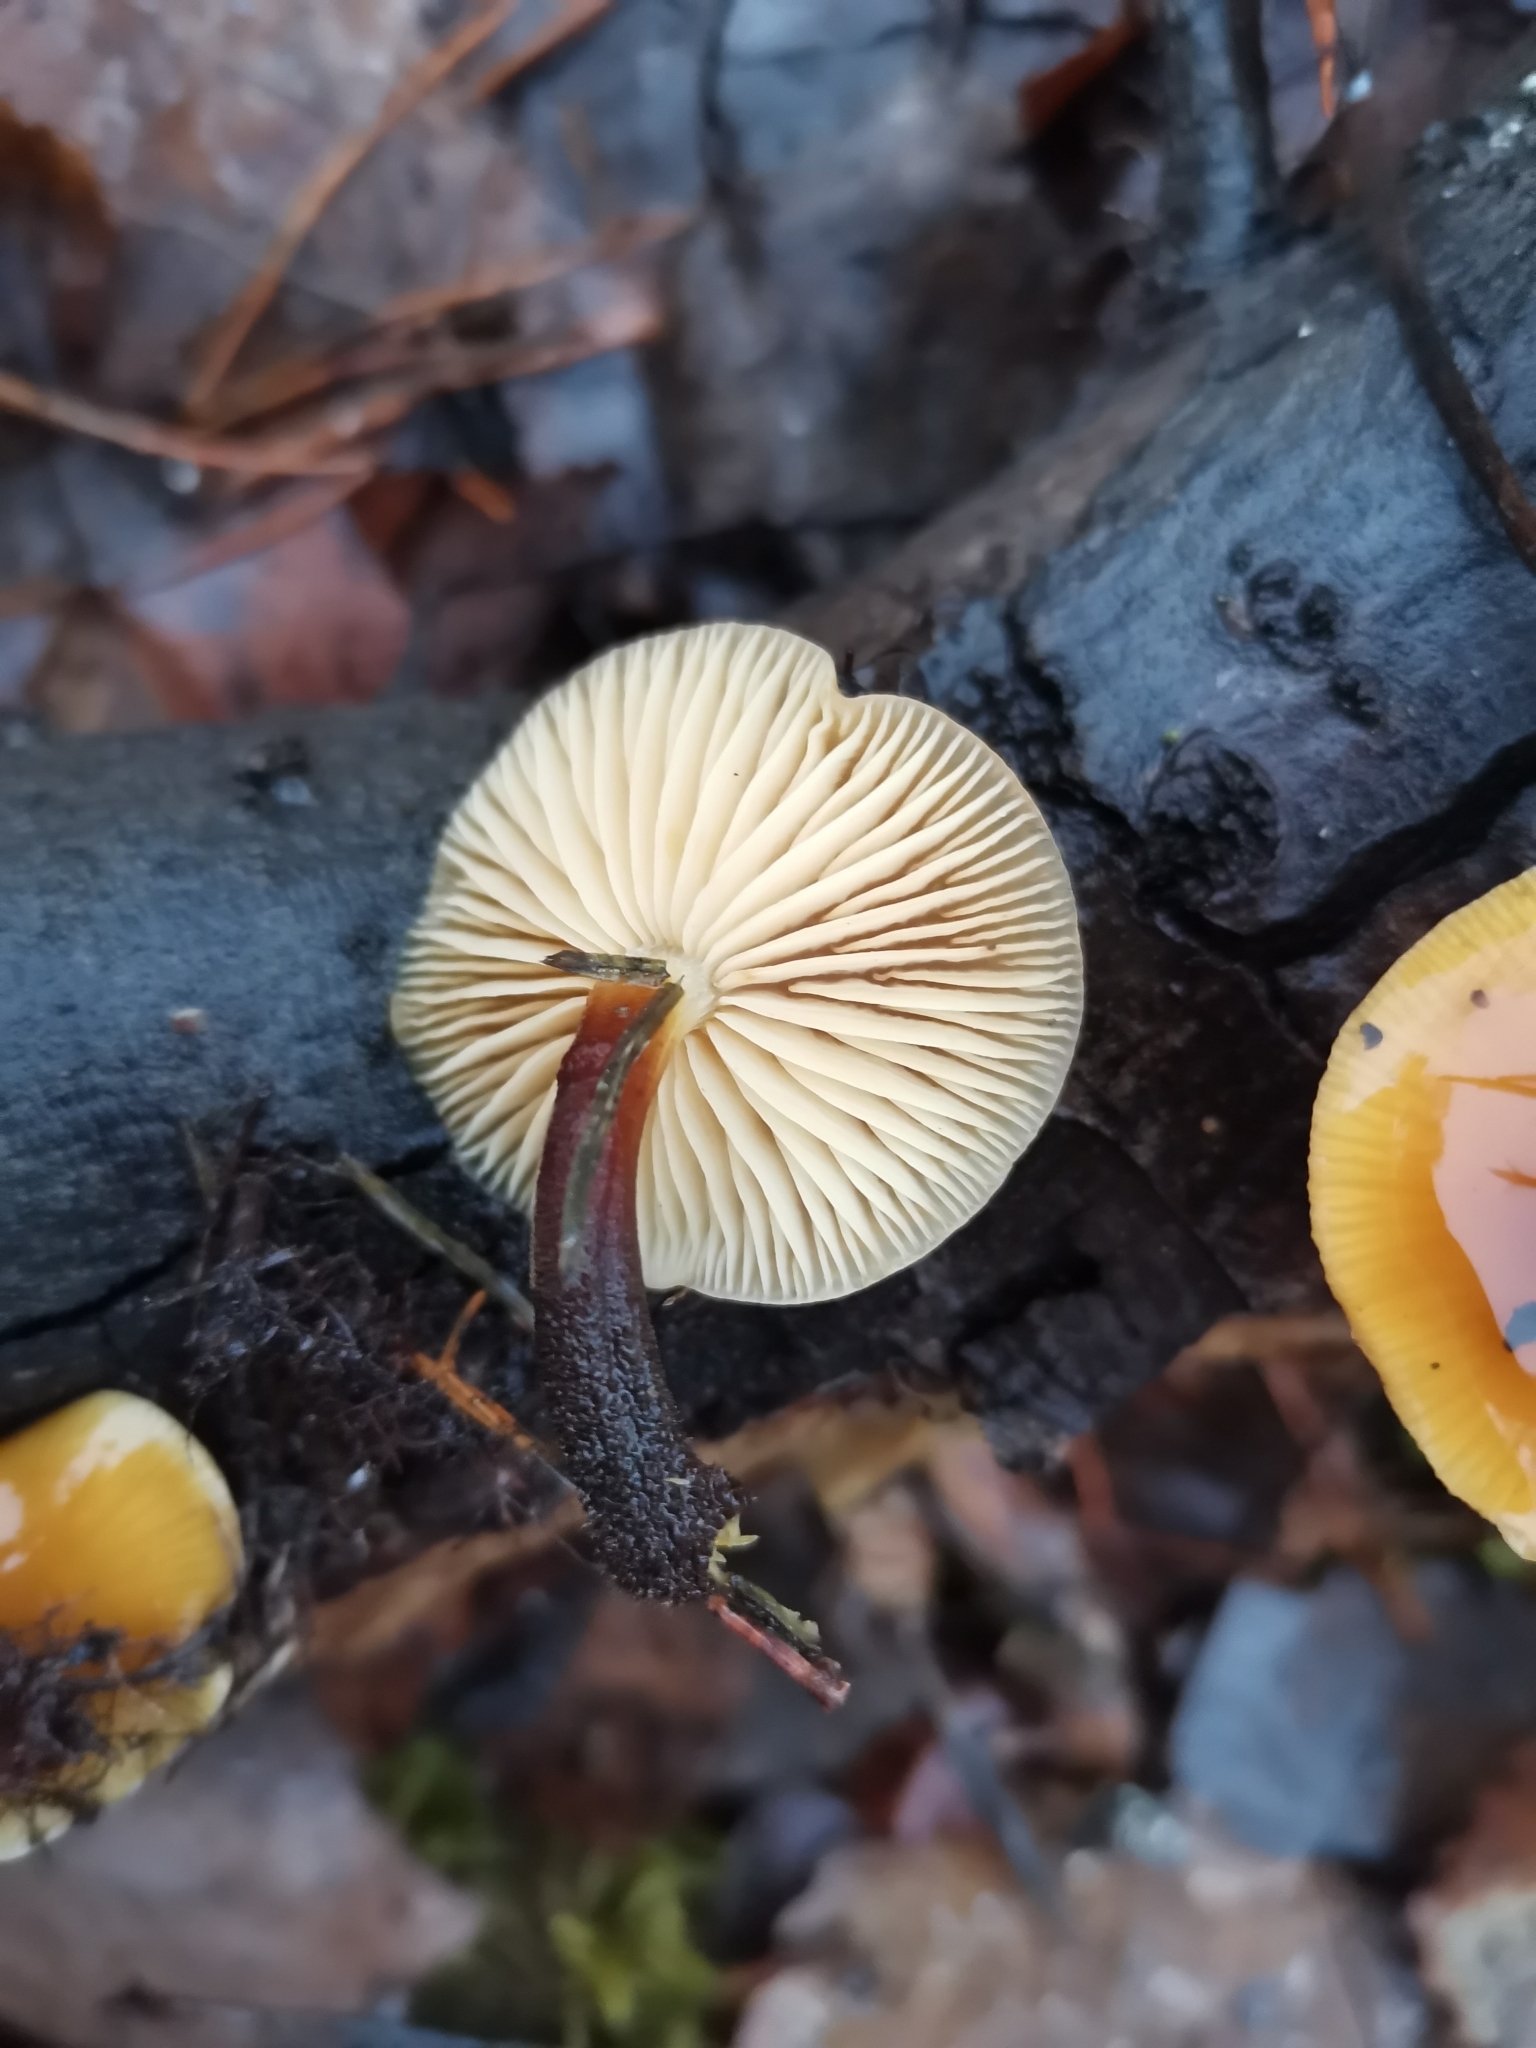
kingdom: Fungi
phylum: Basidiomycota
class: Agaricomycetes
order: Agaricales
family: Physalacriaceae
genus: Flammulina
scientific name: Flammulina
